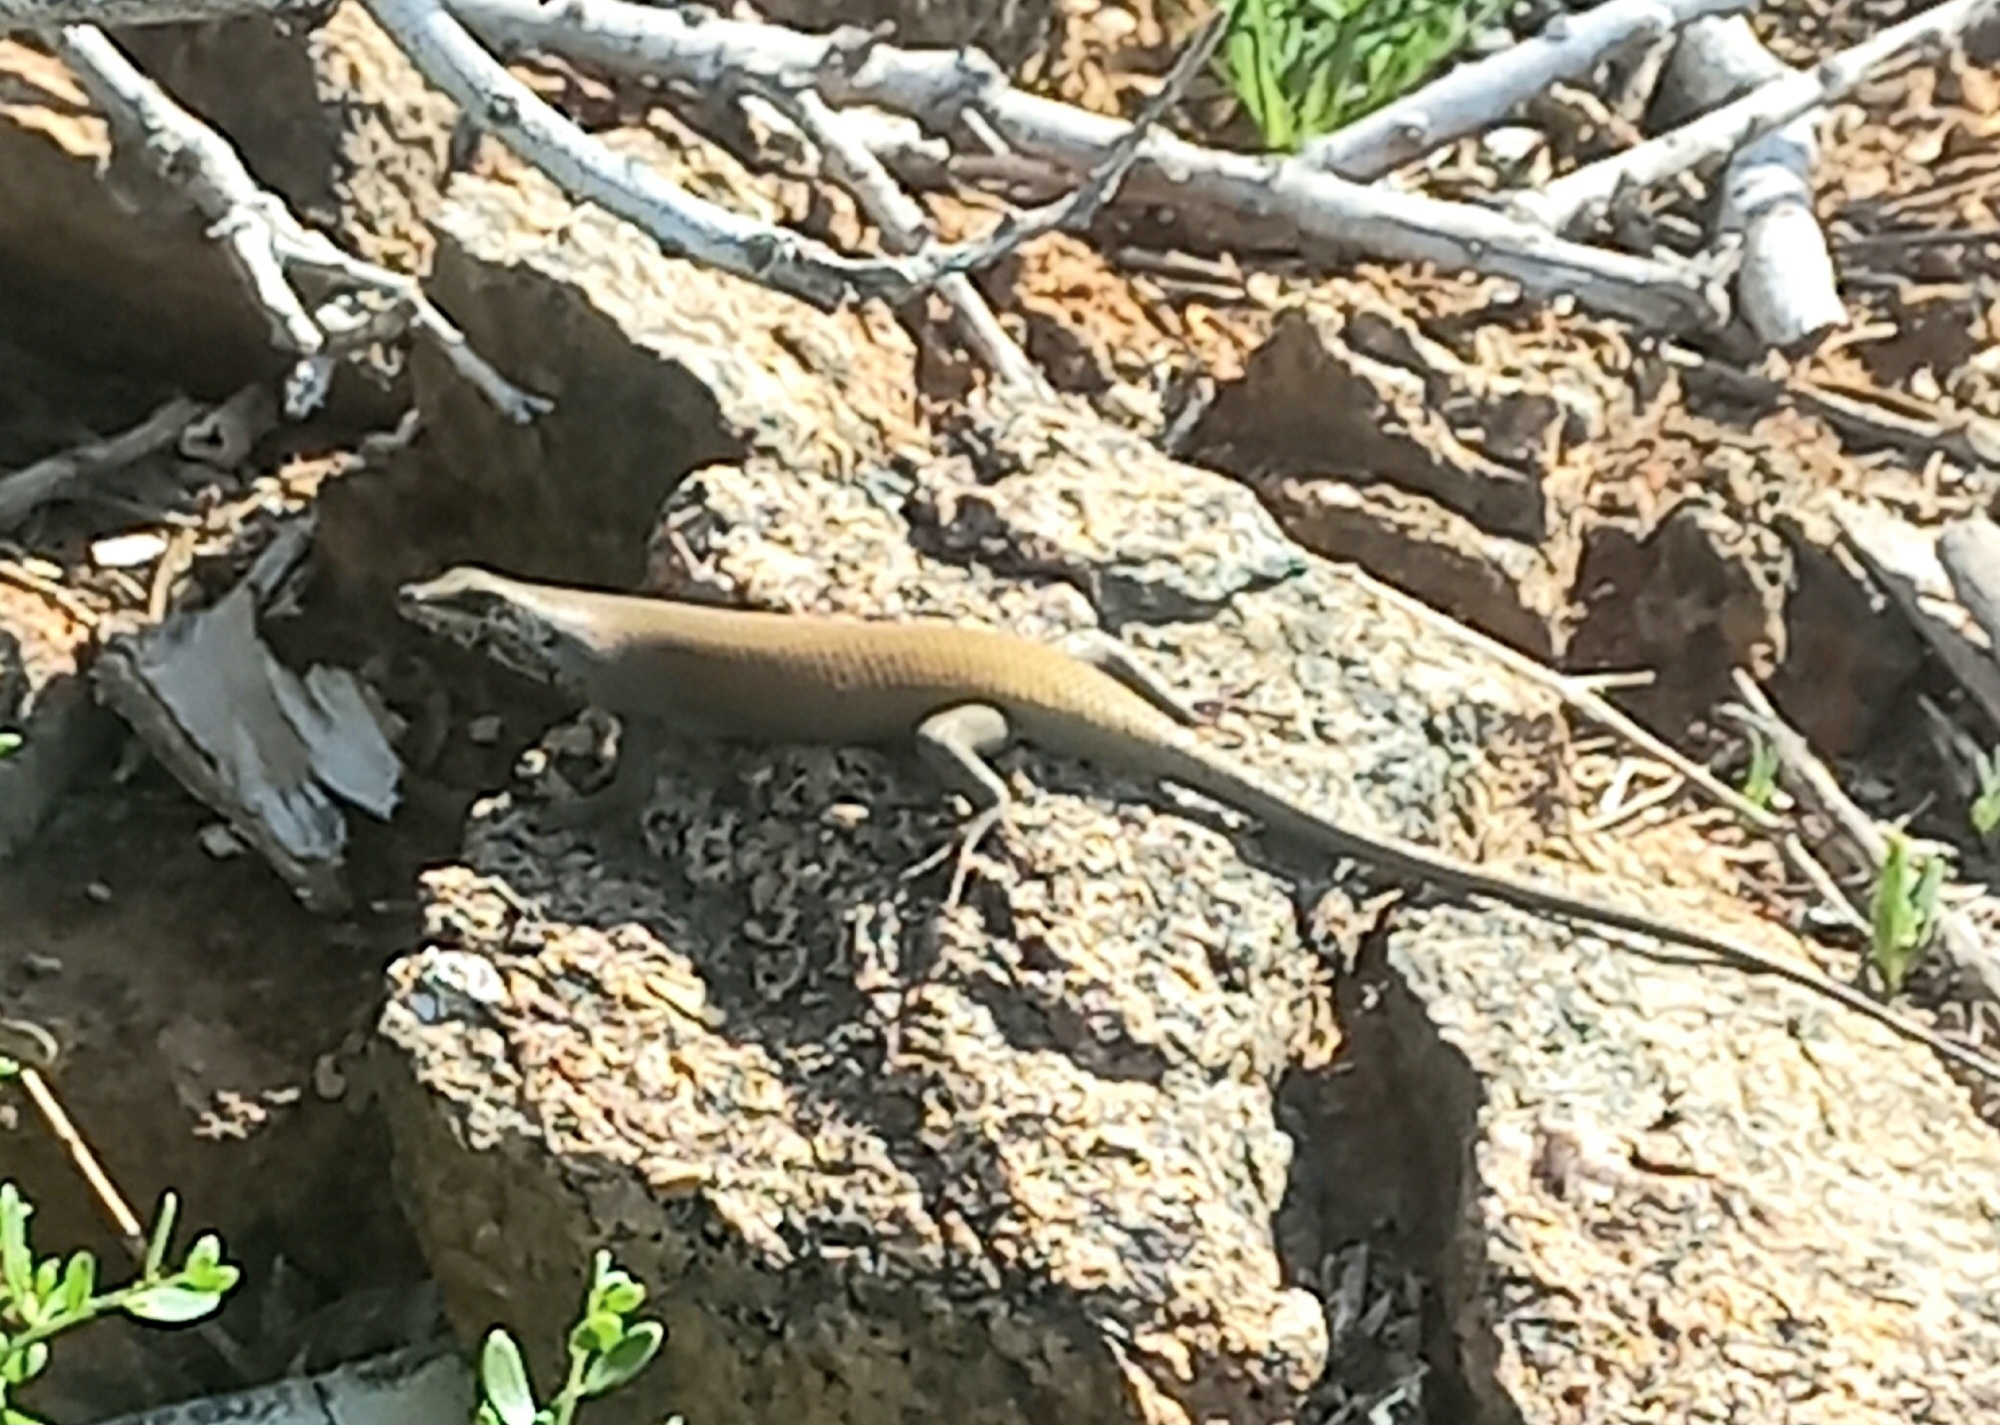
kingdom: Animalia
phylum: Chordata
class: Squamata
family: Scincidae
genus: Trachylepis
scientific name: Trachylepis sulcata
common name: Western rock skink
